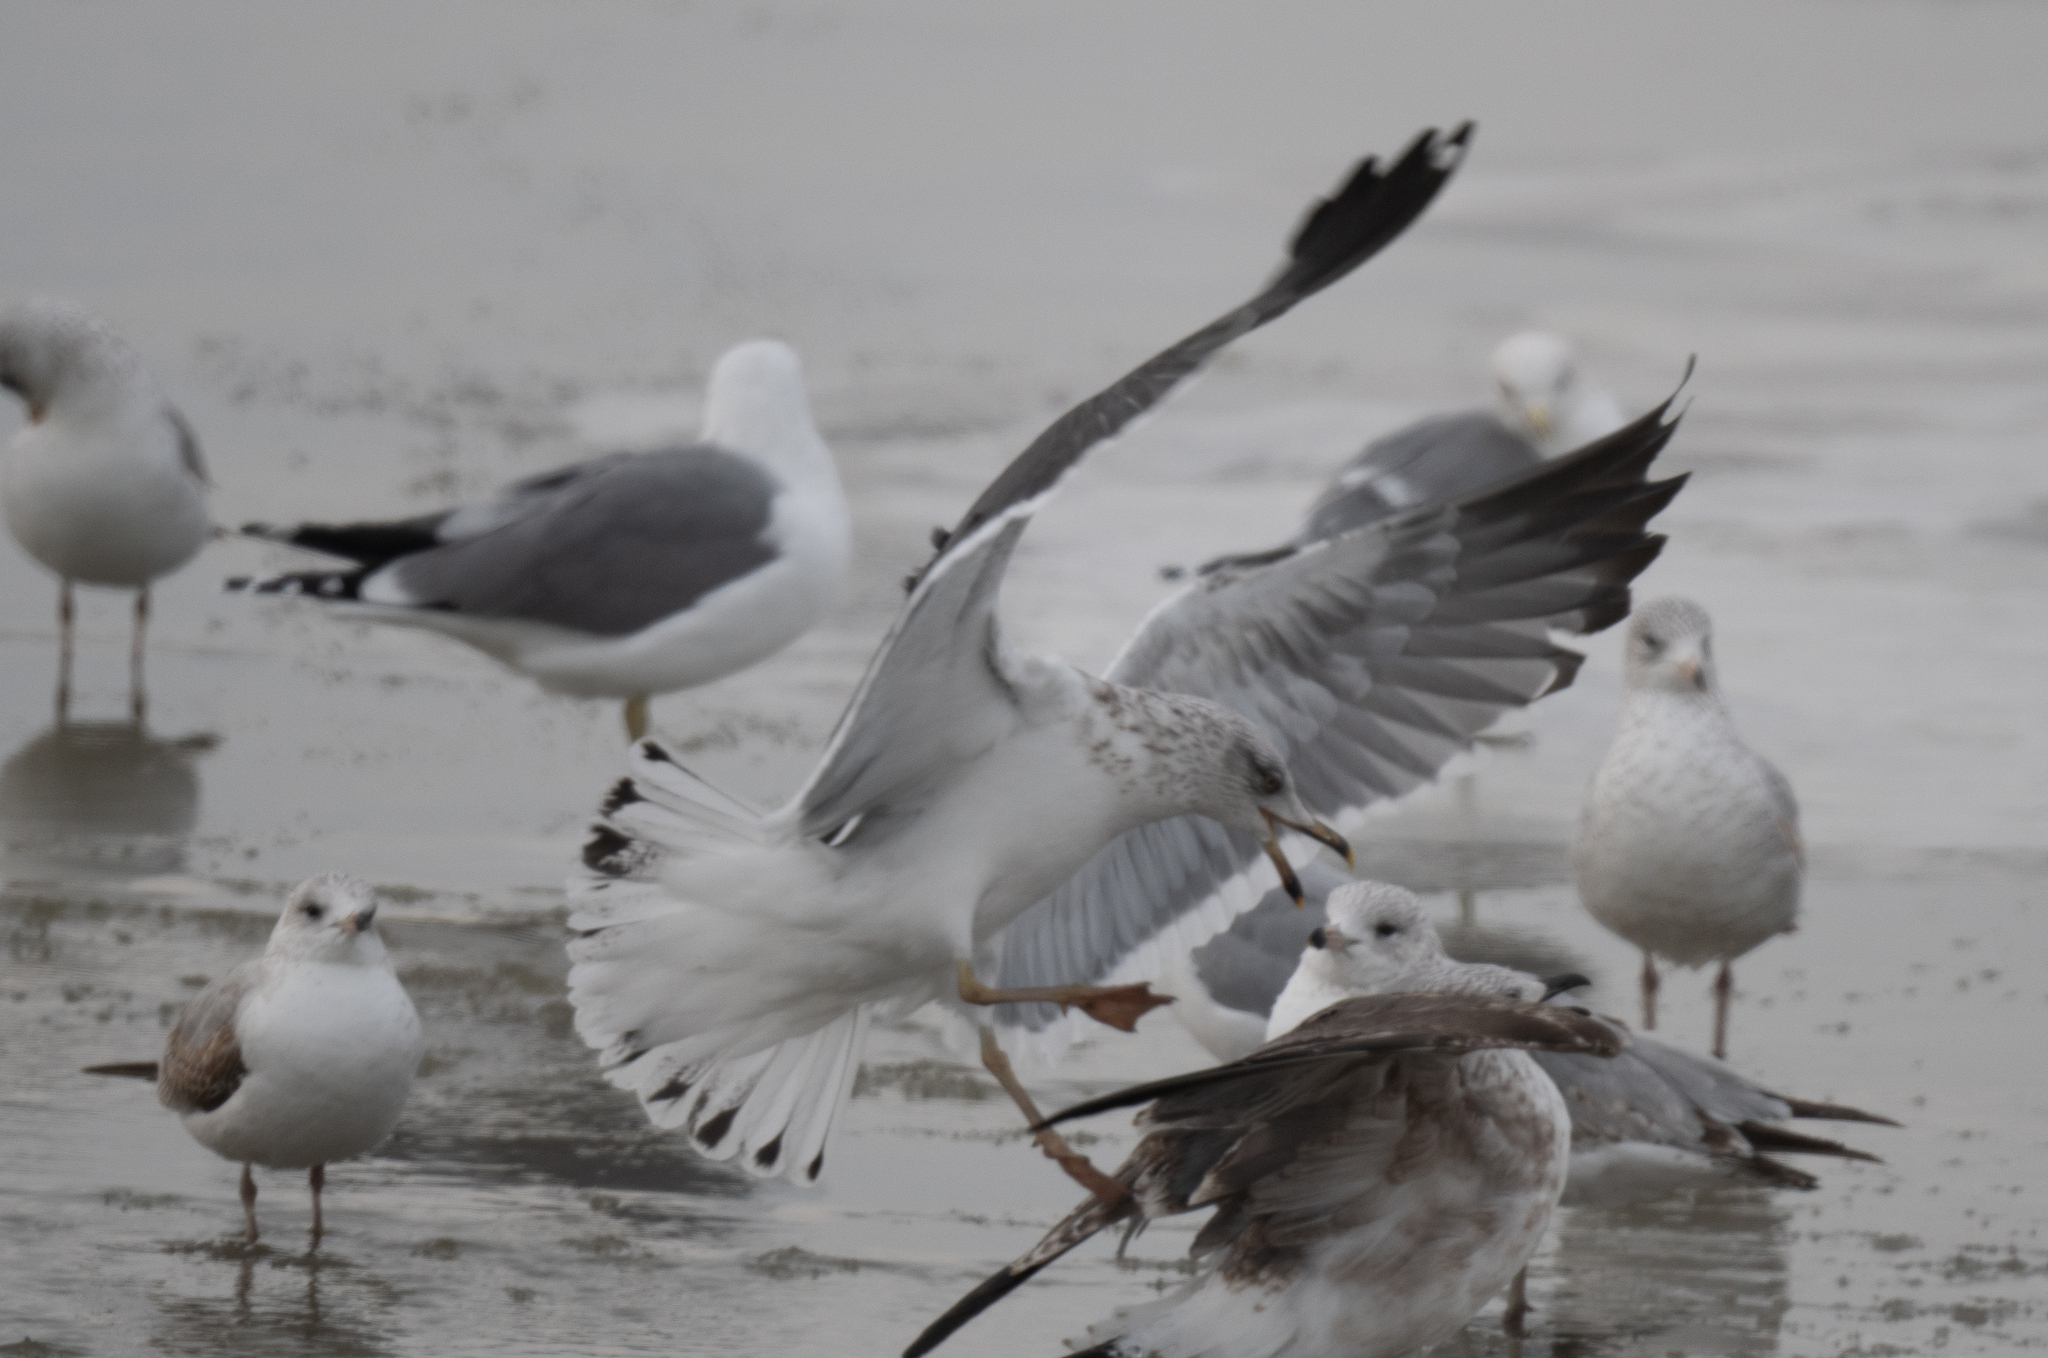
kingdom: Animalia
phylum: Chordata
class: Aves
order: Charadriiformes
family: Laridae
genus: Larus
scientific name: Larus fuscus
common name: Lesser black-backed gull
